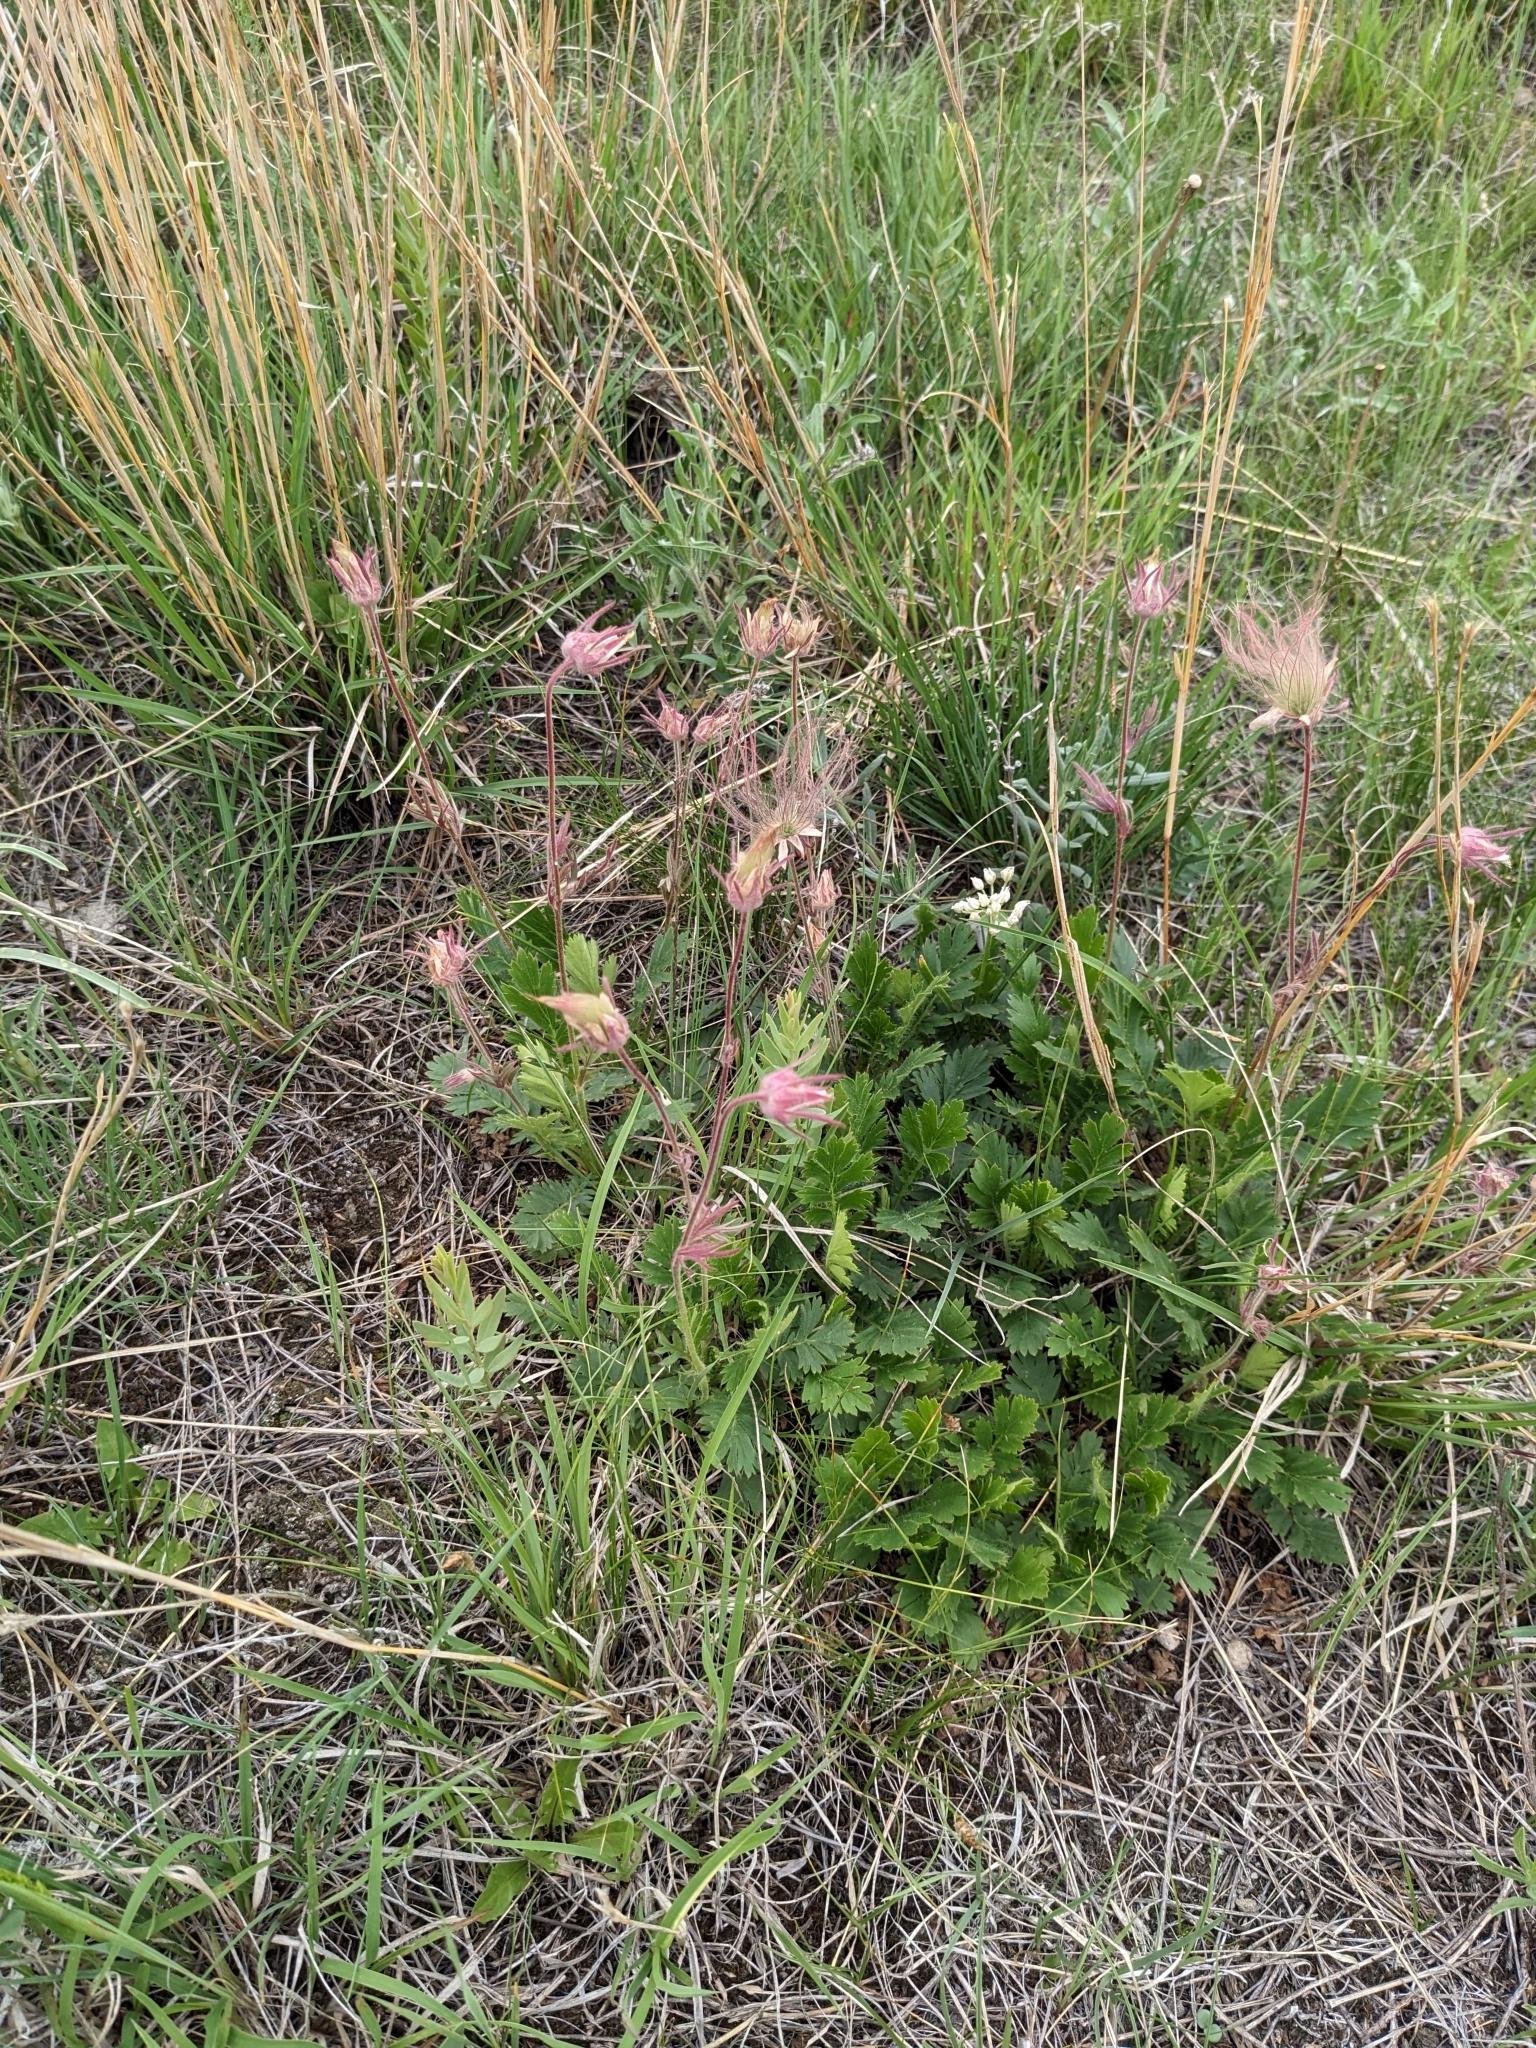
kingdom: Plantae
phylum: Tracheophyta
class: Magnoliopsida
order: Rosales
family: Rosaceae
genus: Geum
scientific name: Geum triflorum
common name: Old man's whiskers
